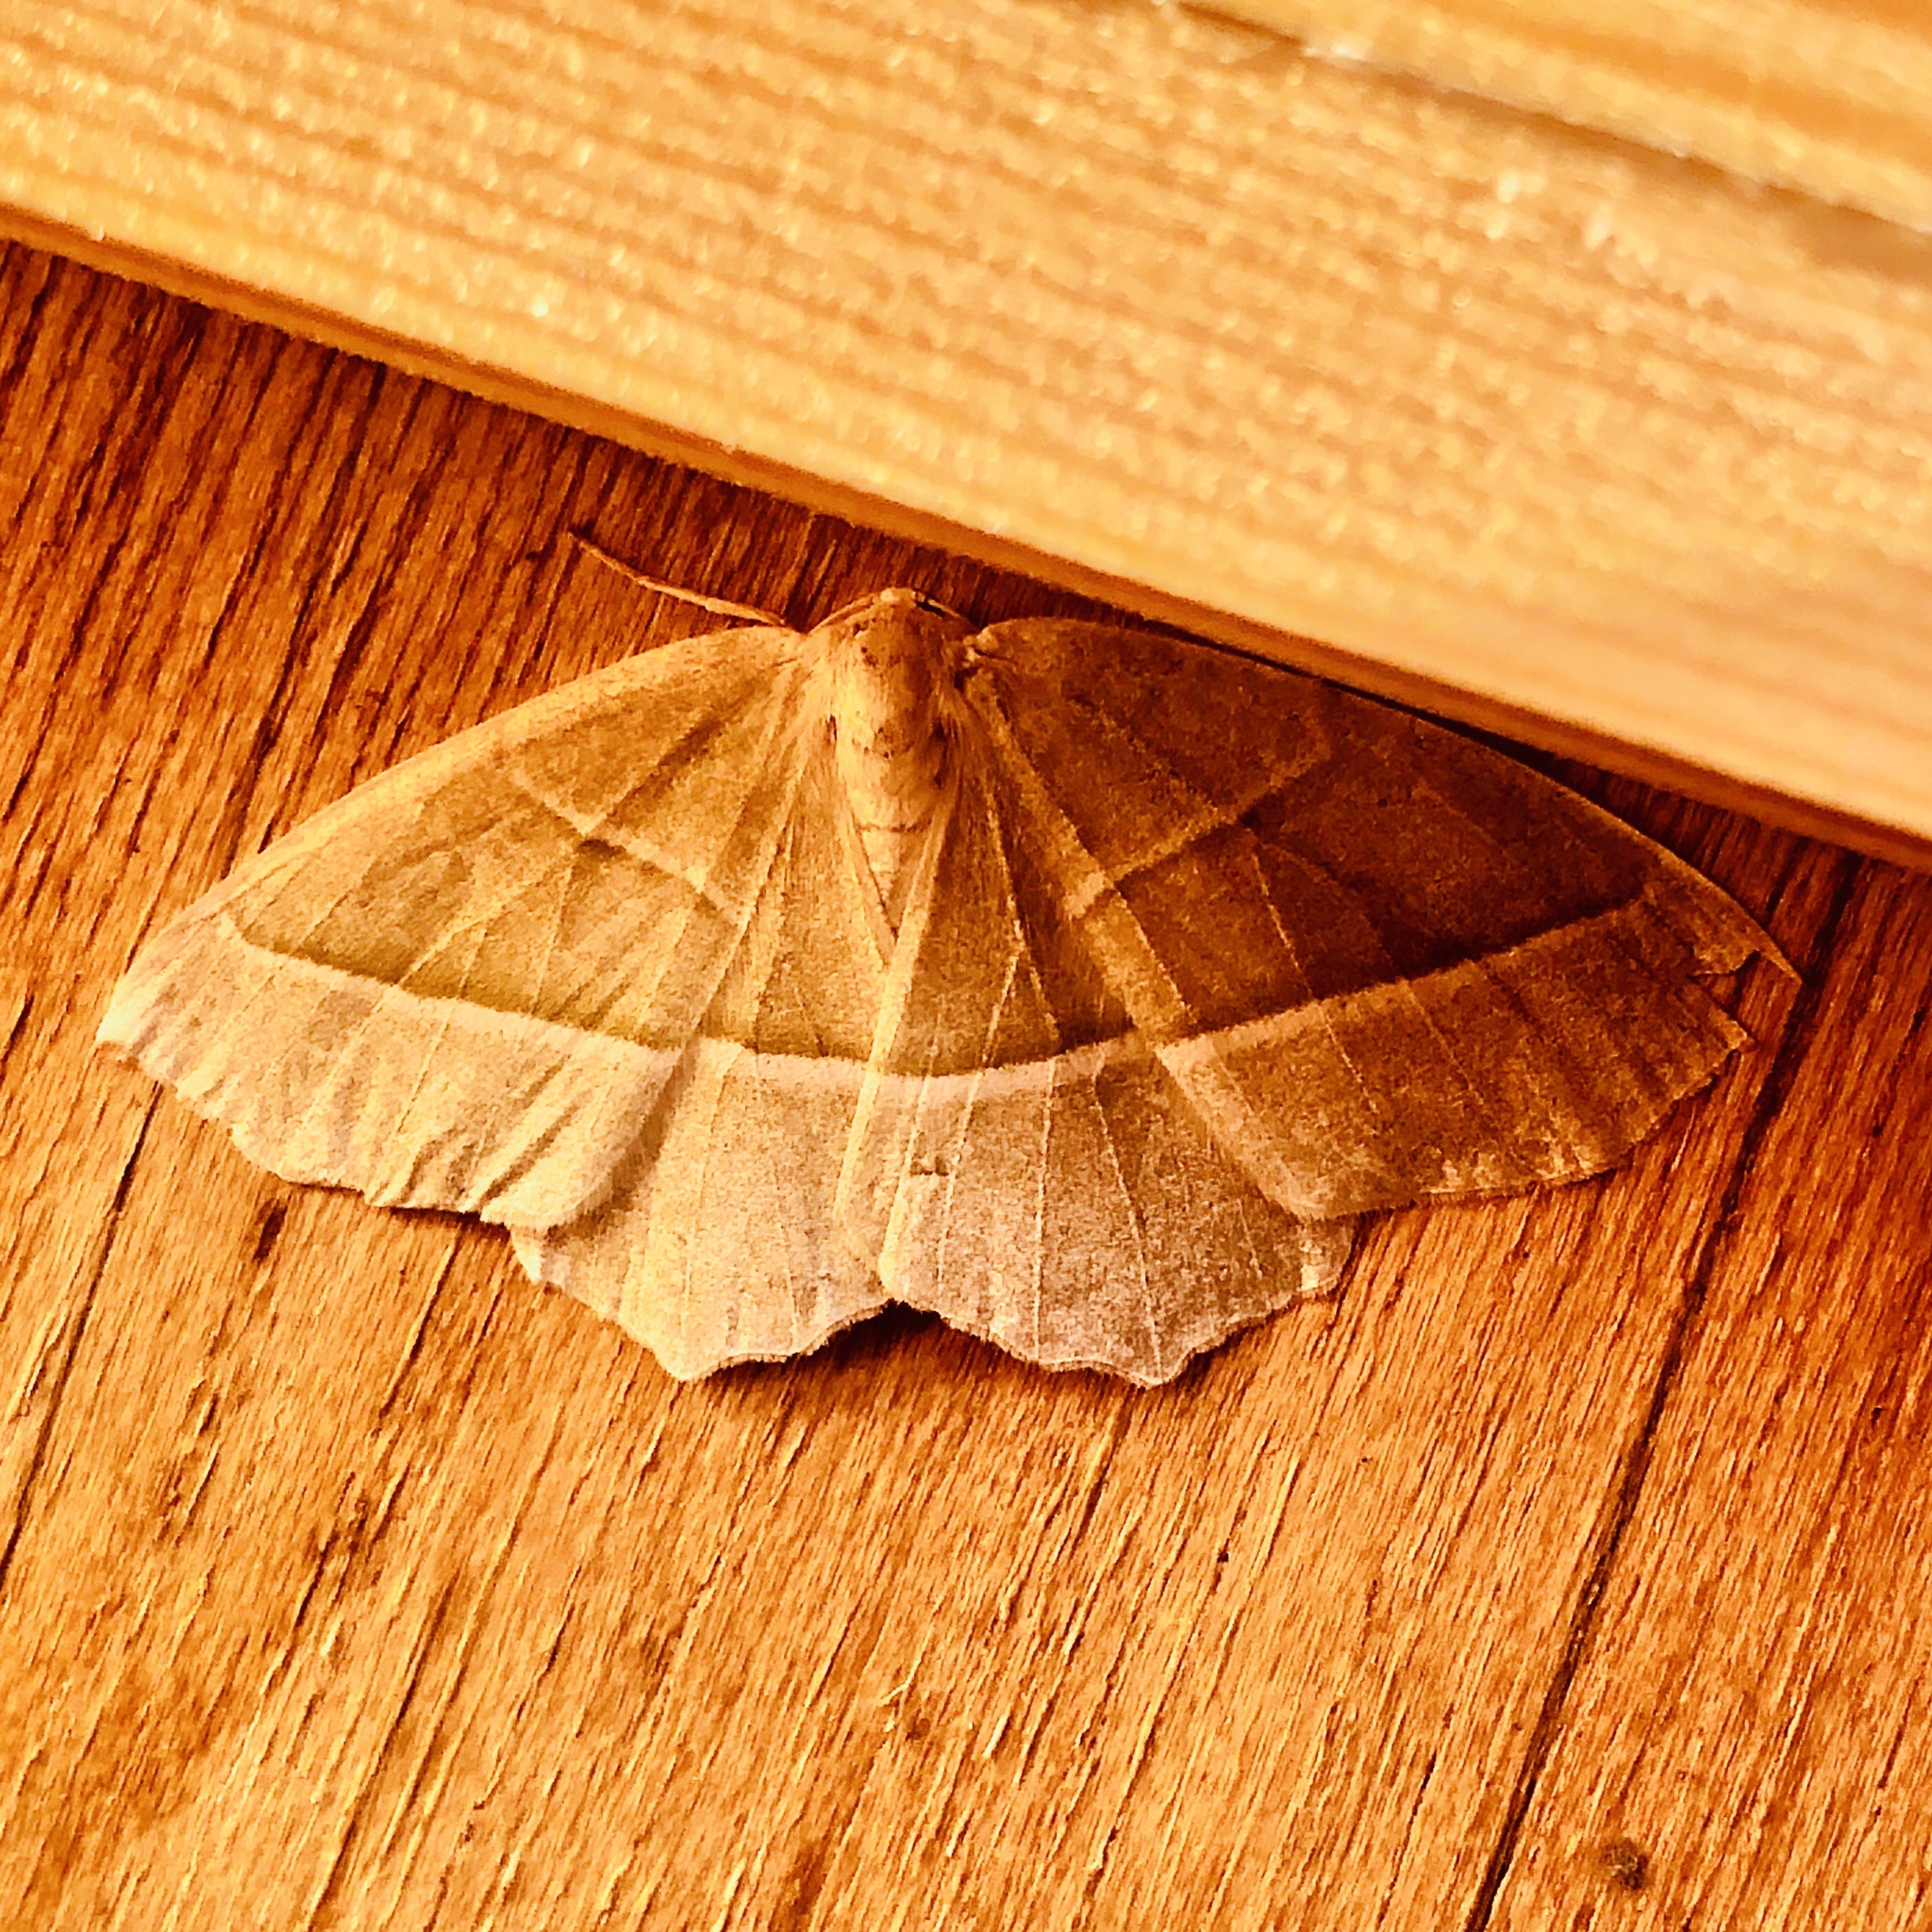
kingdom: Animalia
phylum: Arthropoda
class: Insecta
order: Lepidoptera
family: Geometridae
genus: Campaea
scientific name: Campaea margaritaria
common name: Light emerald
